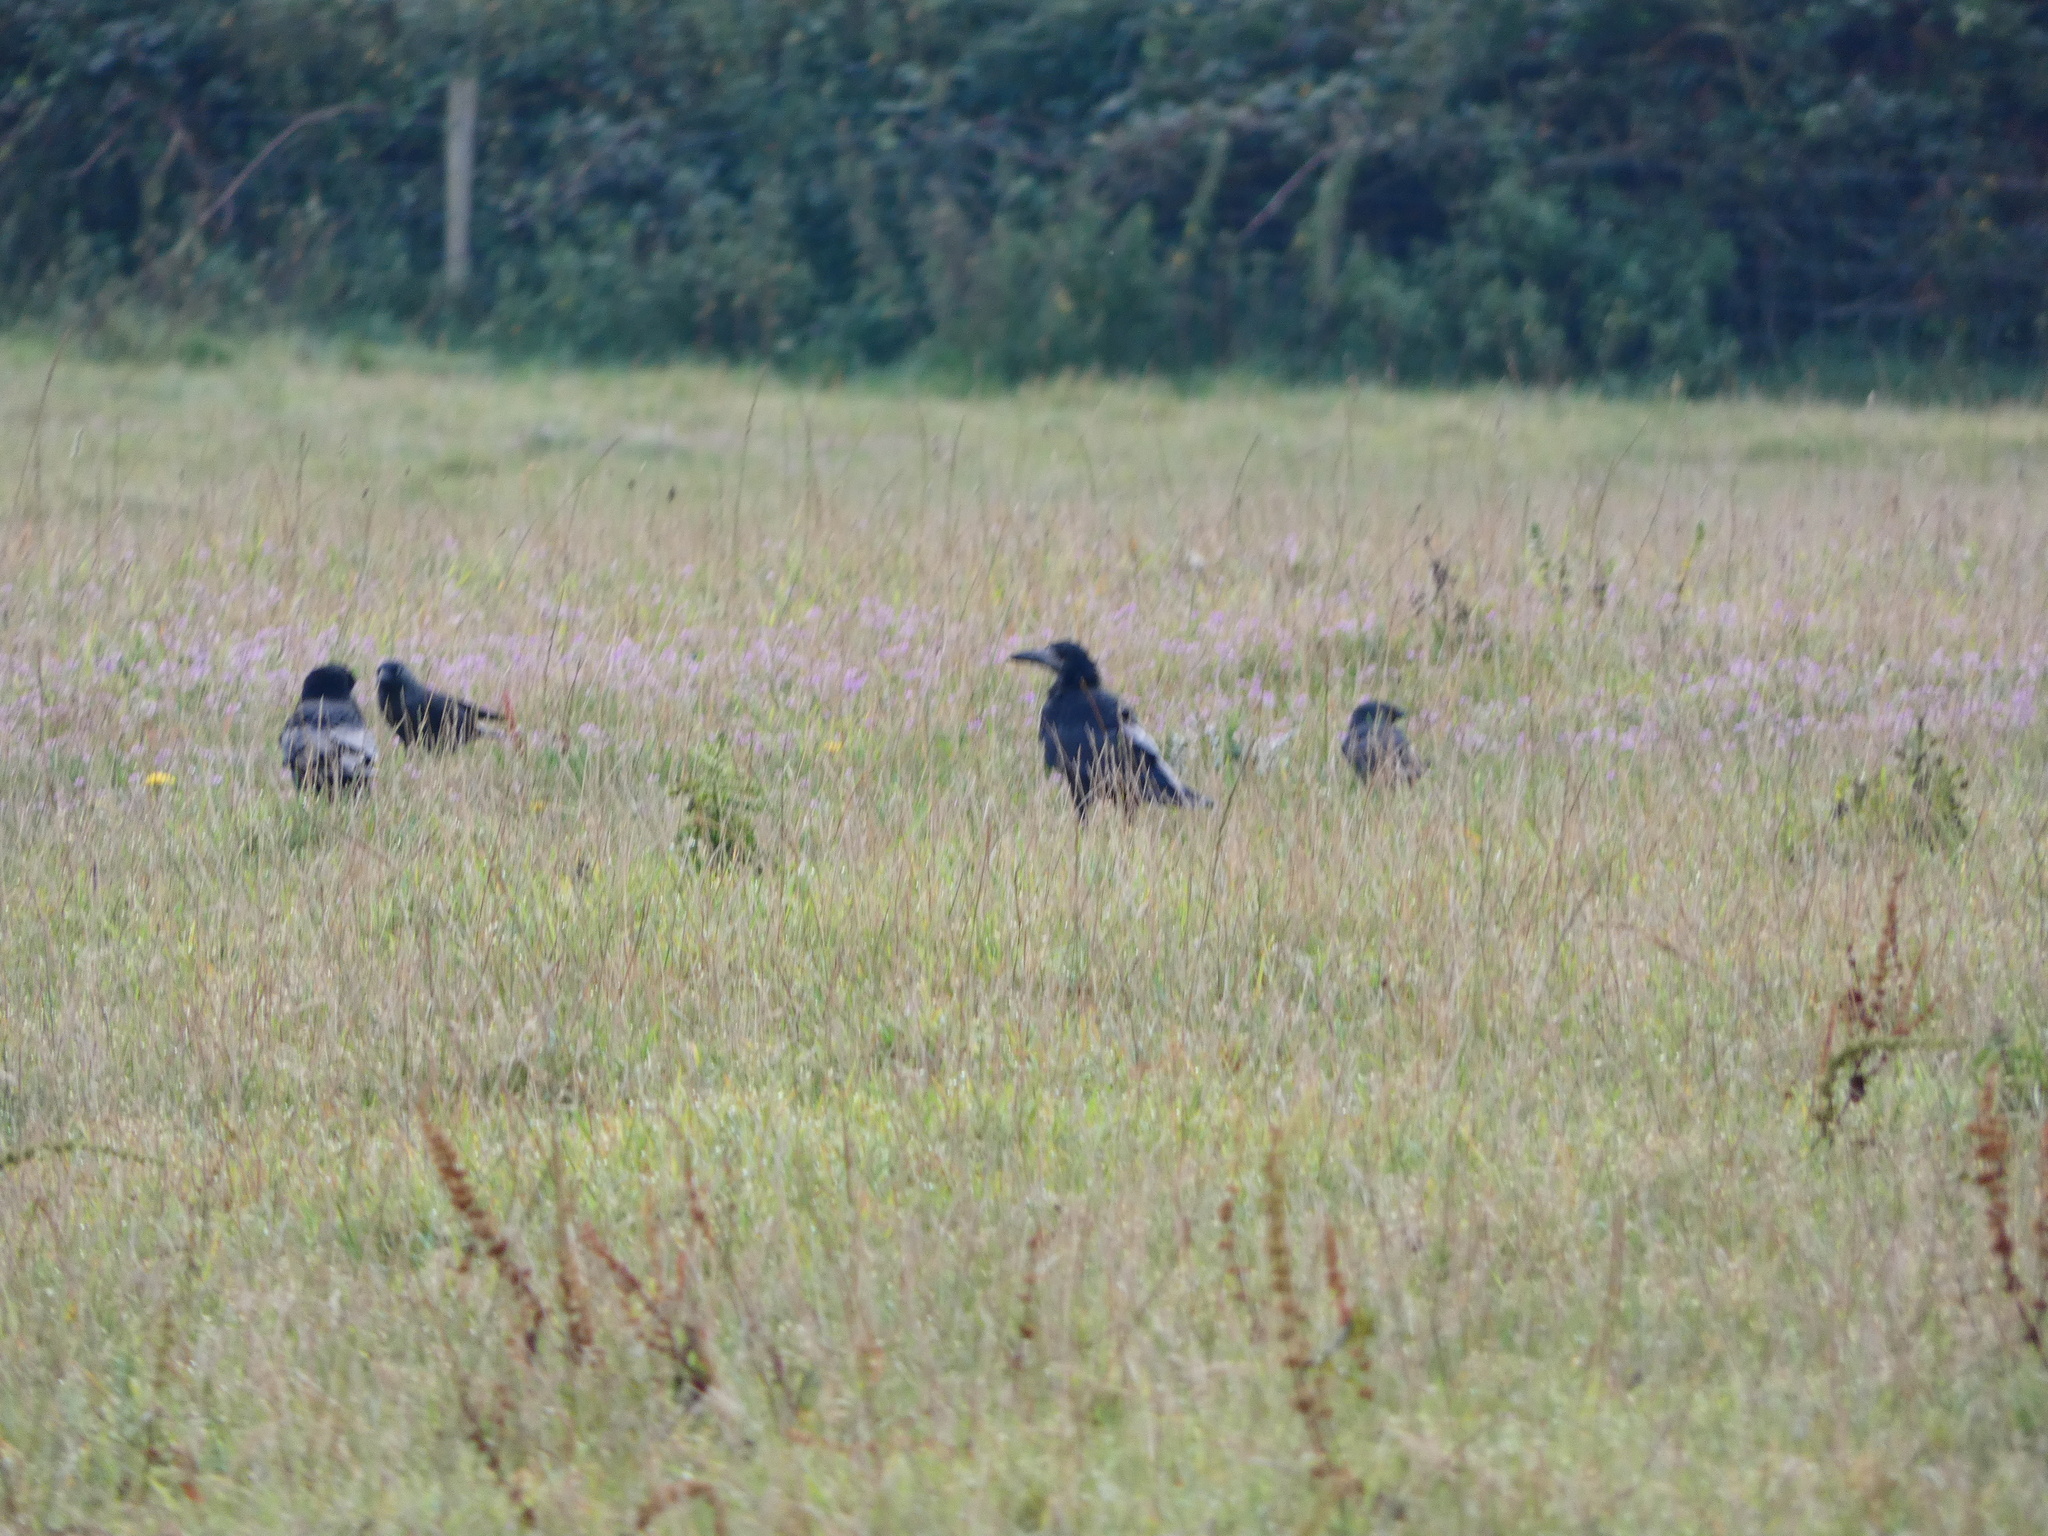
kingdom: Animalia
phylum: Chordata
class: Aves
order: Passeriformes
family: Corvidae
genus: Corvus
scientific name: Corvus frugilegus
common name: Rook
